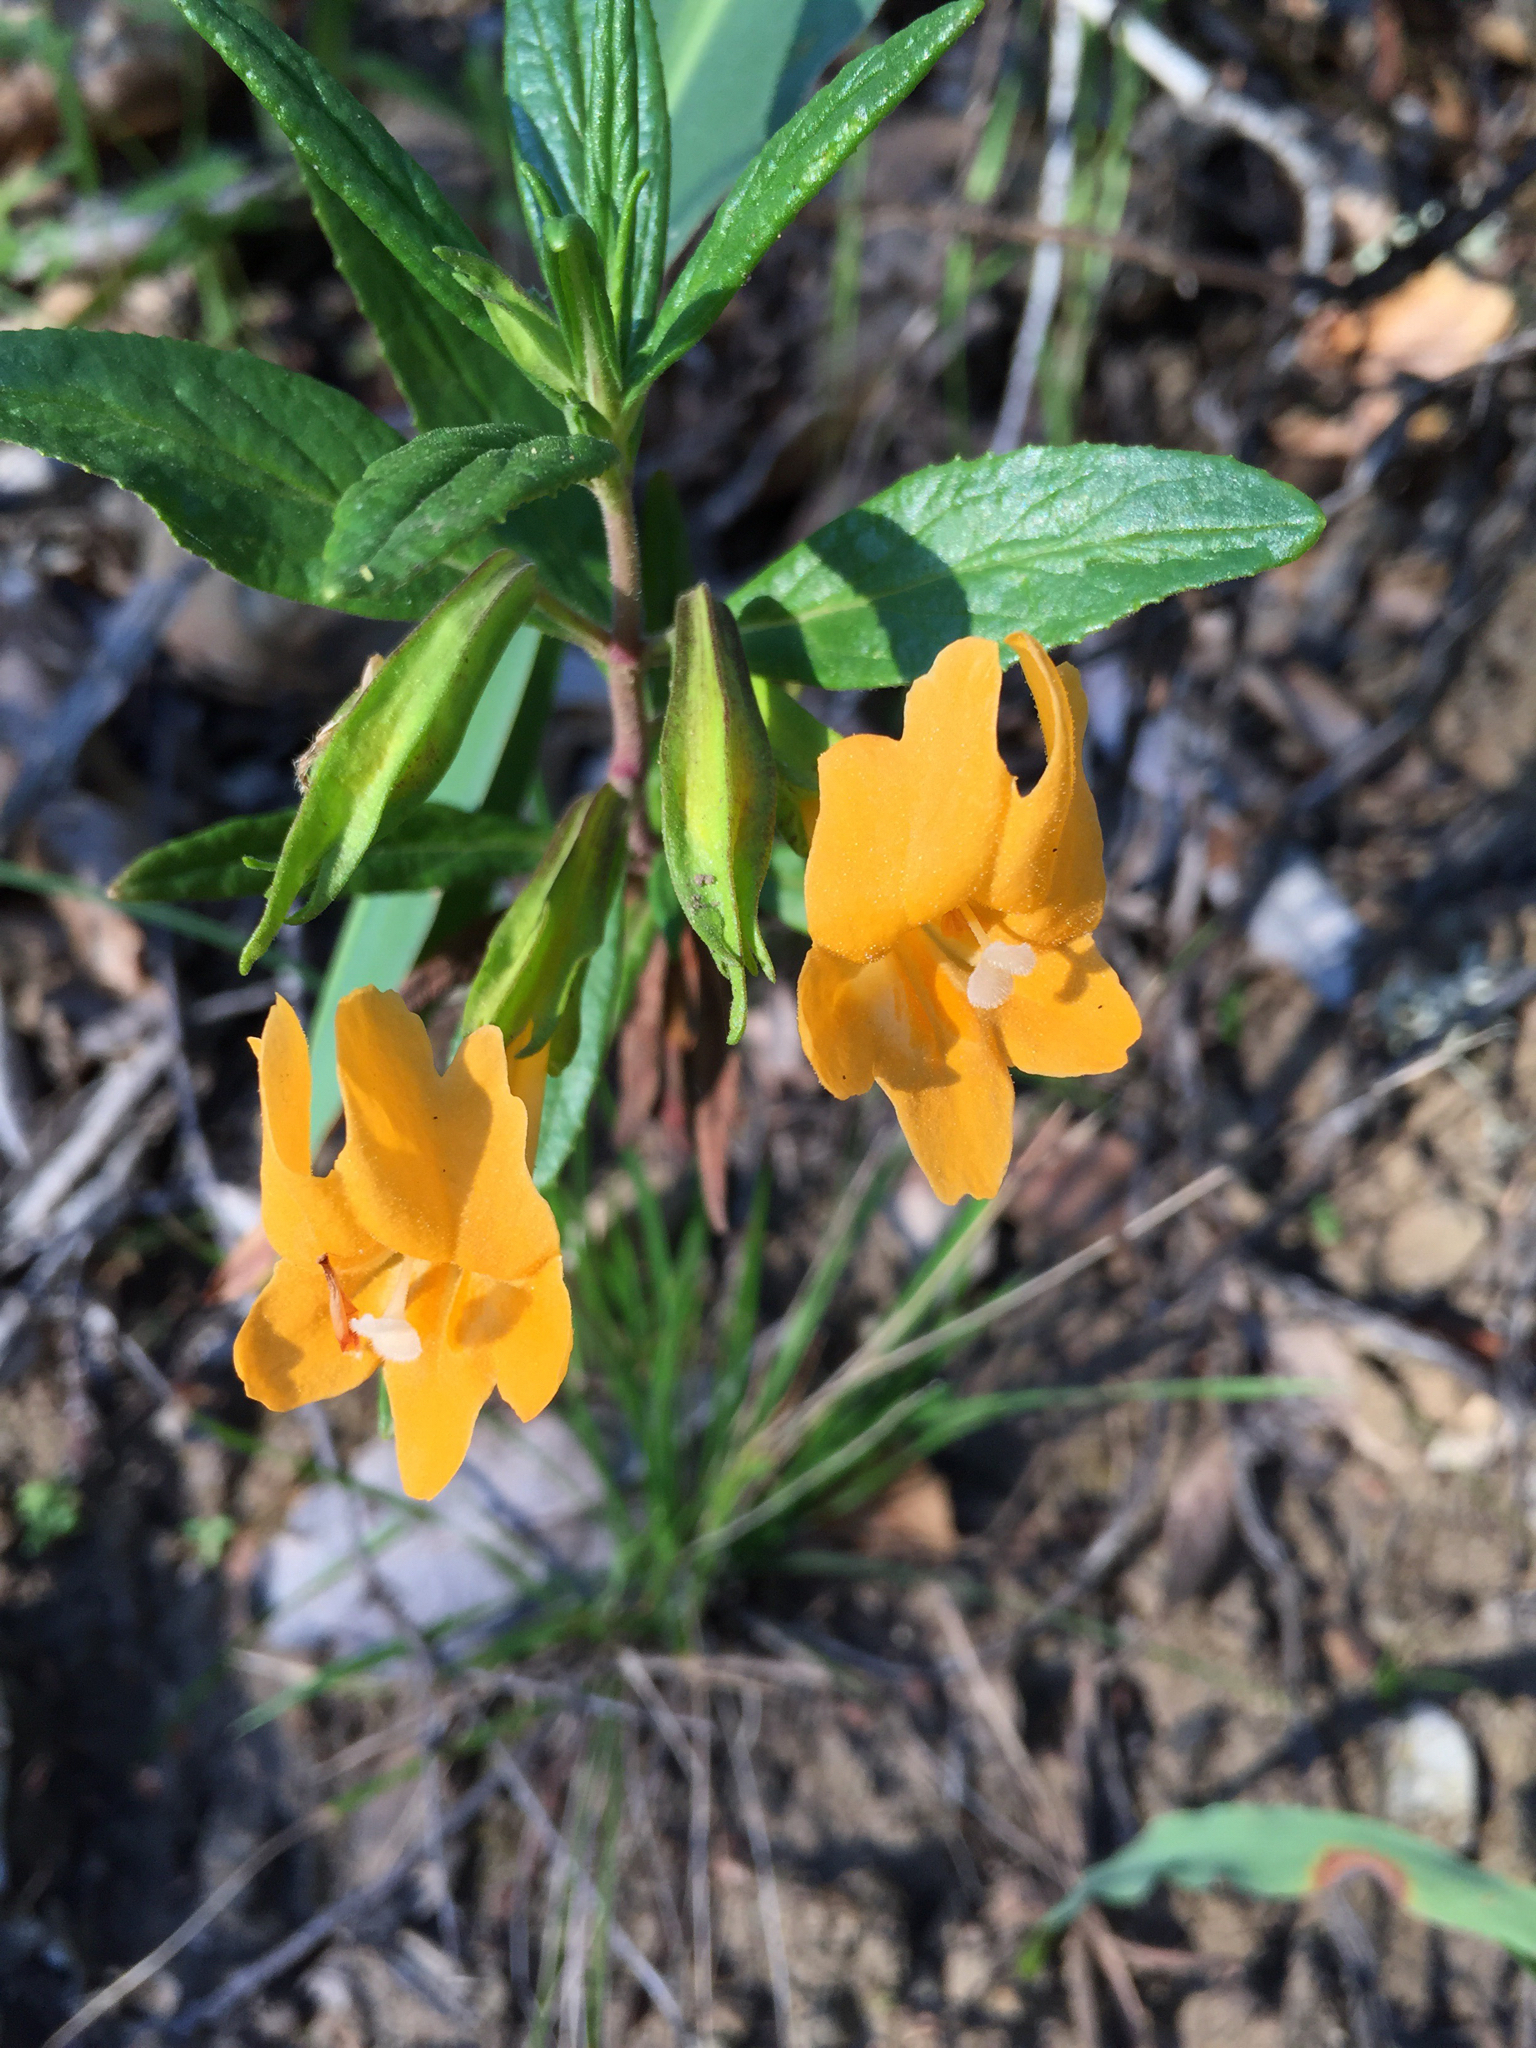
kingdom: Plantae
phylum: Tracheophyta
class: Magnoliopsida
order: Lamiales
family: Phrymaceae
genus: Diplacus
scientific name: Diplacus aurantiacus
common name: Bush monkey-flower
